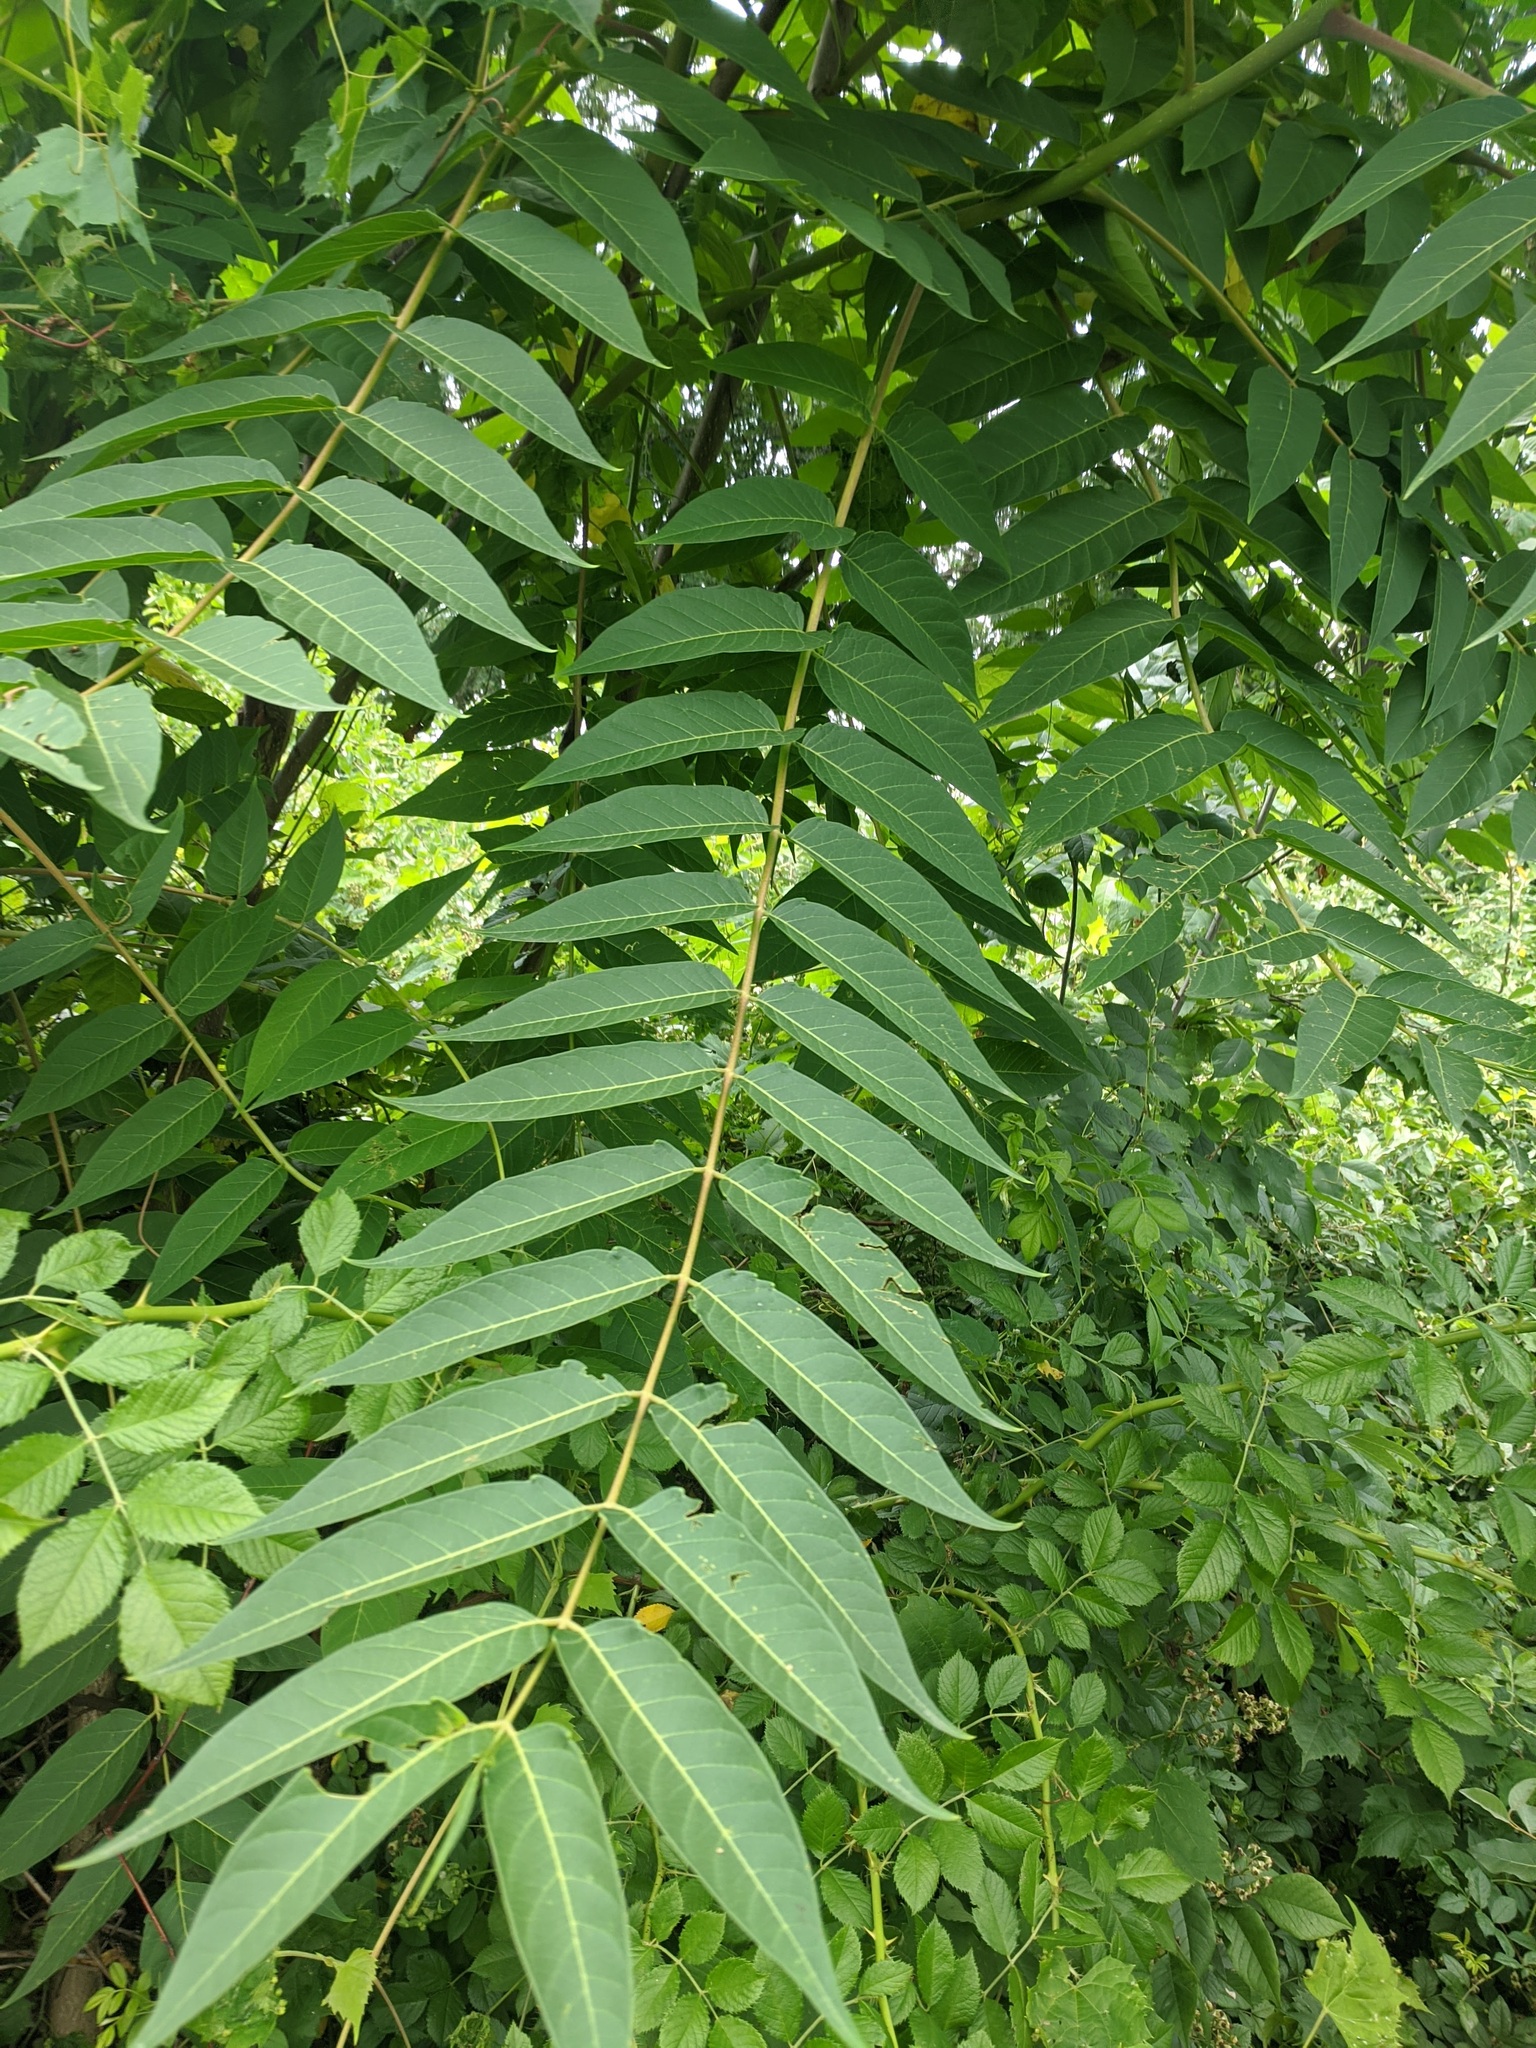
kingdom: Plantae
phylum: Tracheophyta
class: Magnoliopsida
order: Sapindales
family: Simaroubaceae
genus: Ailanthus
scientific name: Ailanthus altissima
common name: Tree-of-heaven
